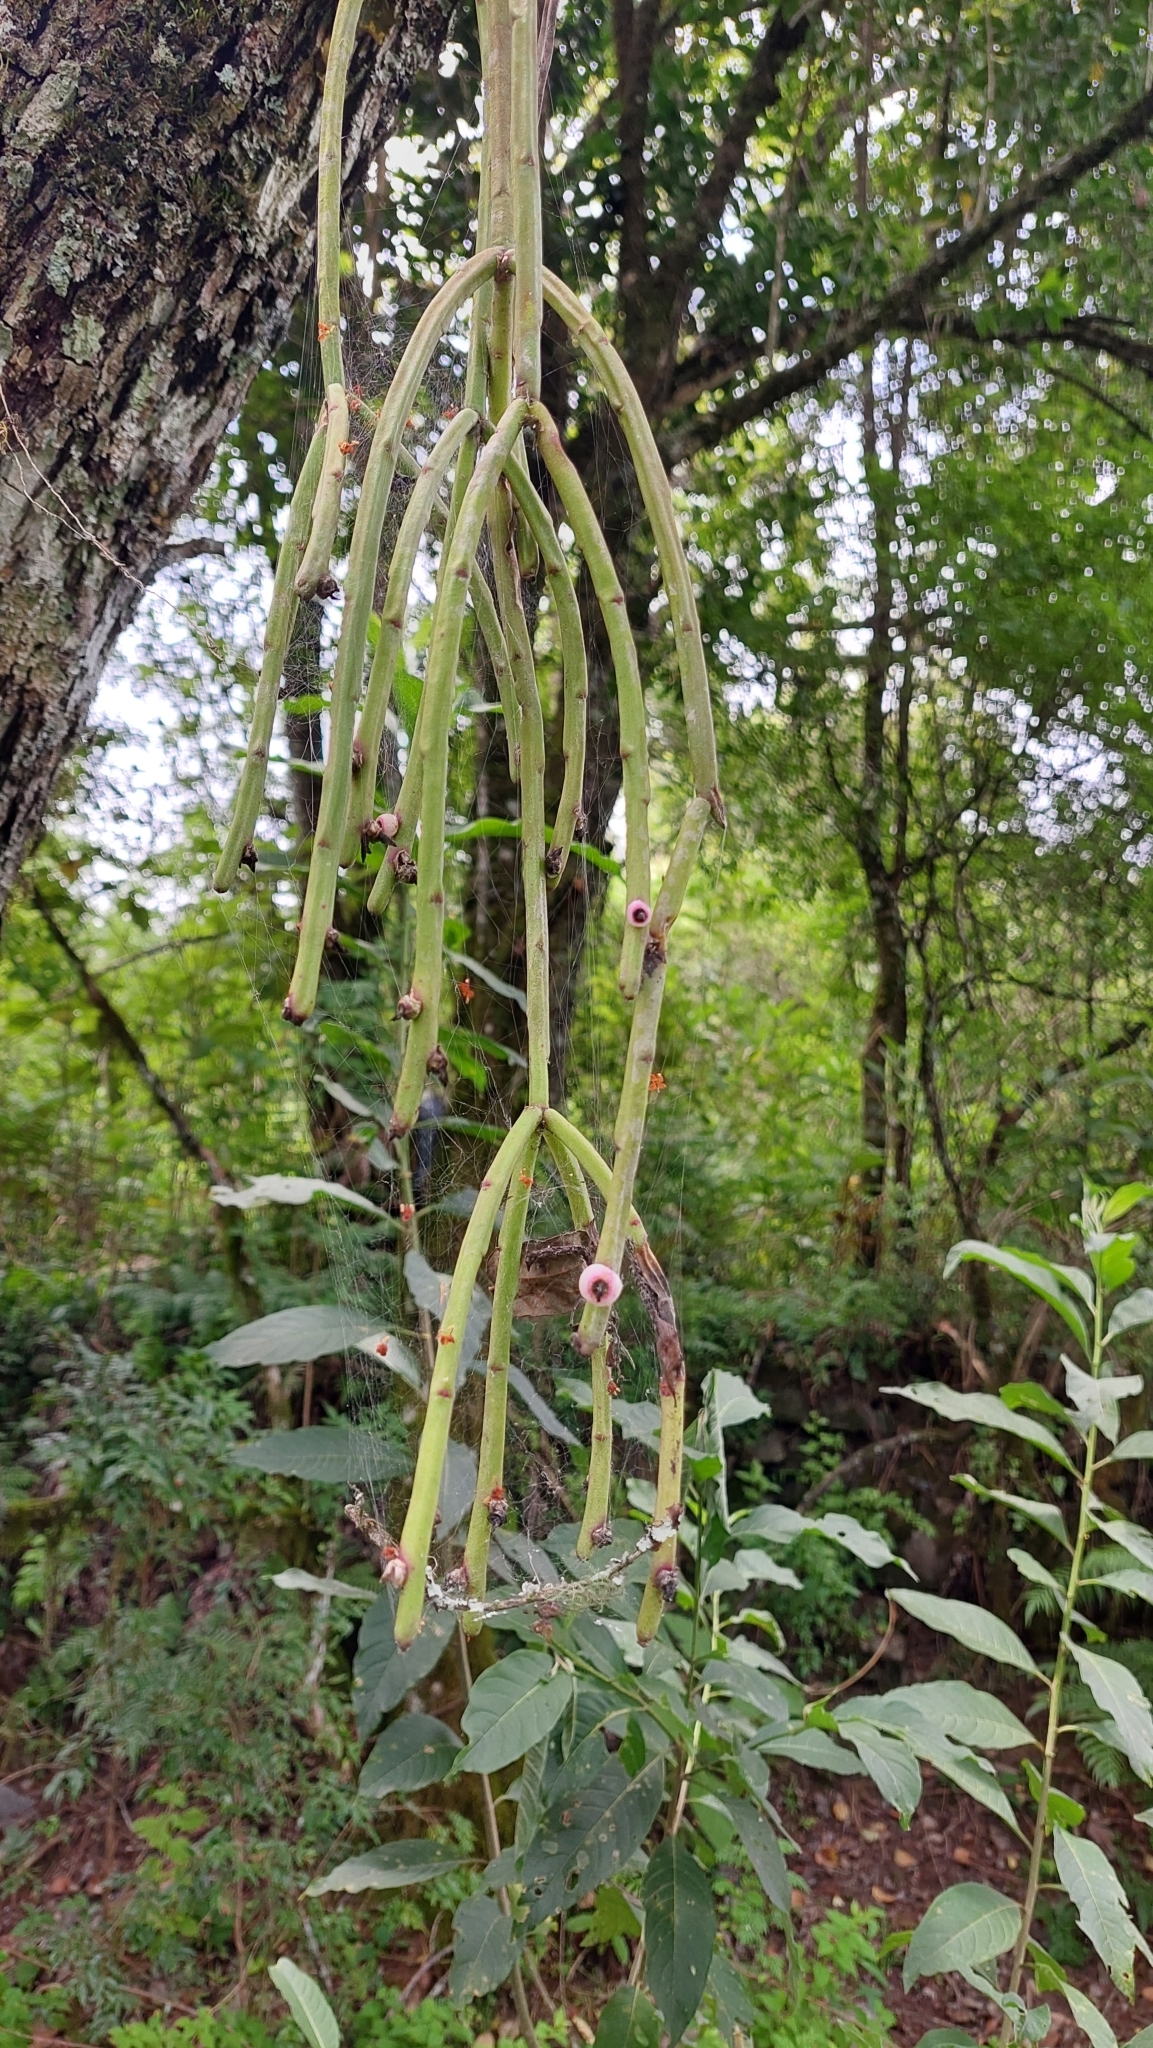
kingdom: Plantae
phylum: Tracheophyta
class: Magnoliopsida
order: Caryophyllales
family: Cactaceae
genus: Rhipsalis
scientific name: Rhipsalis floccosa
